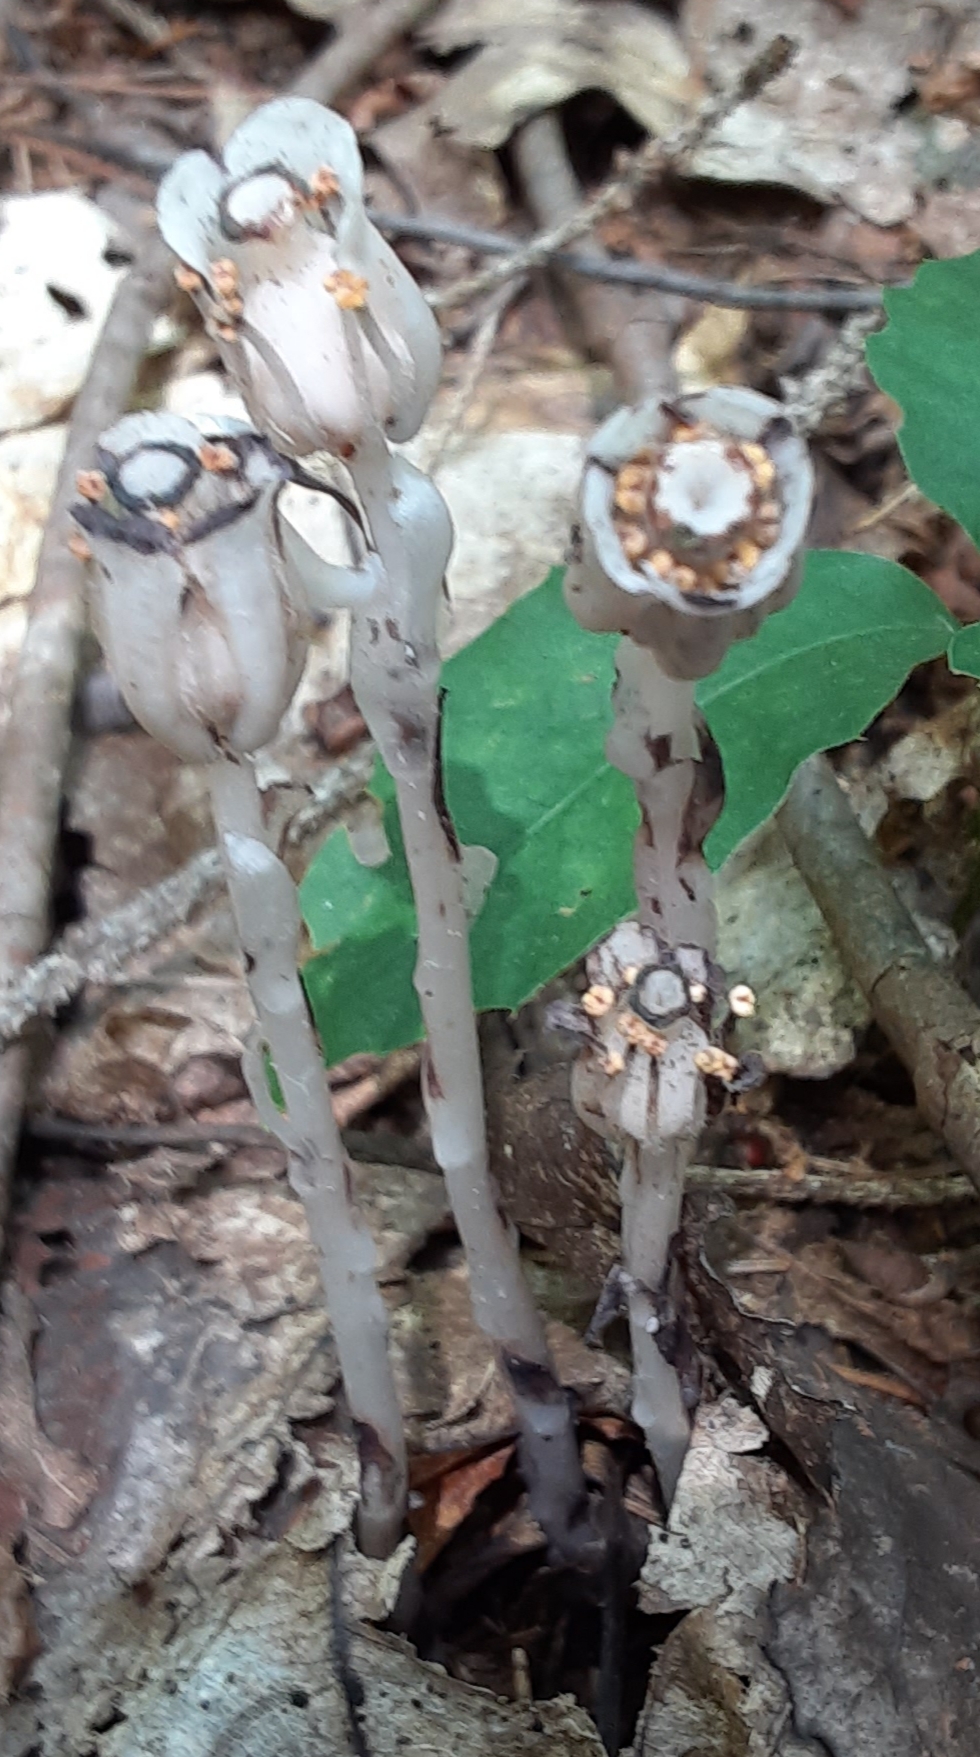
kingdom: Plantae
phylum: Tracheophyta
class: Magnoliopsida
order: Ericales
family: Ericaceae
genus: Monotropa
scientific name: Monotropa uniflora
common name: Convulsion root
